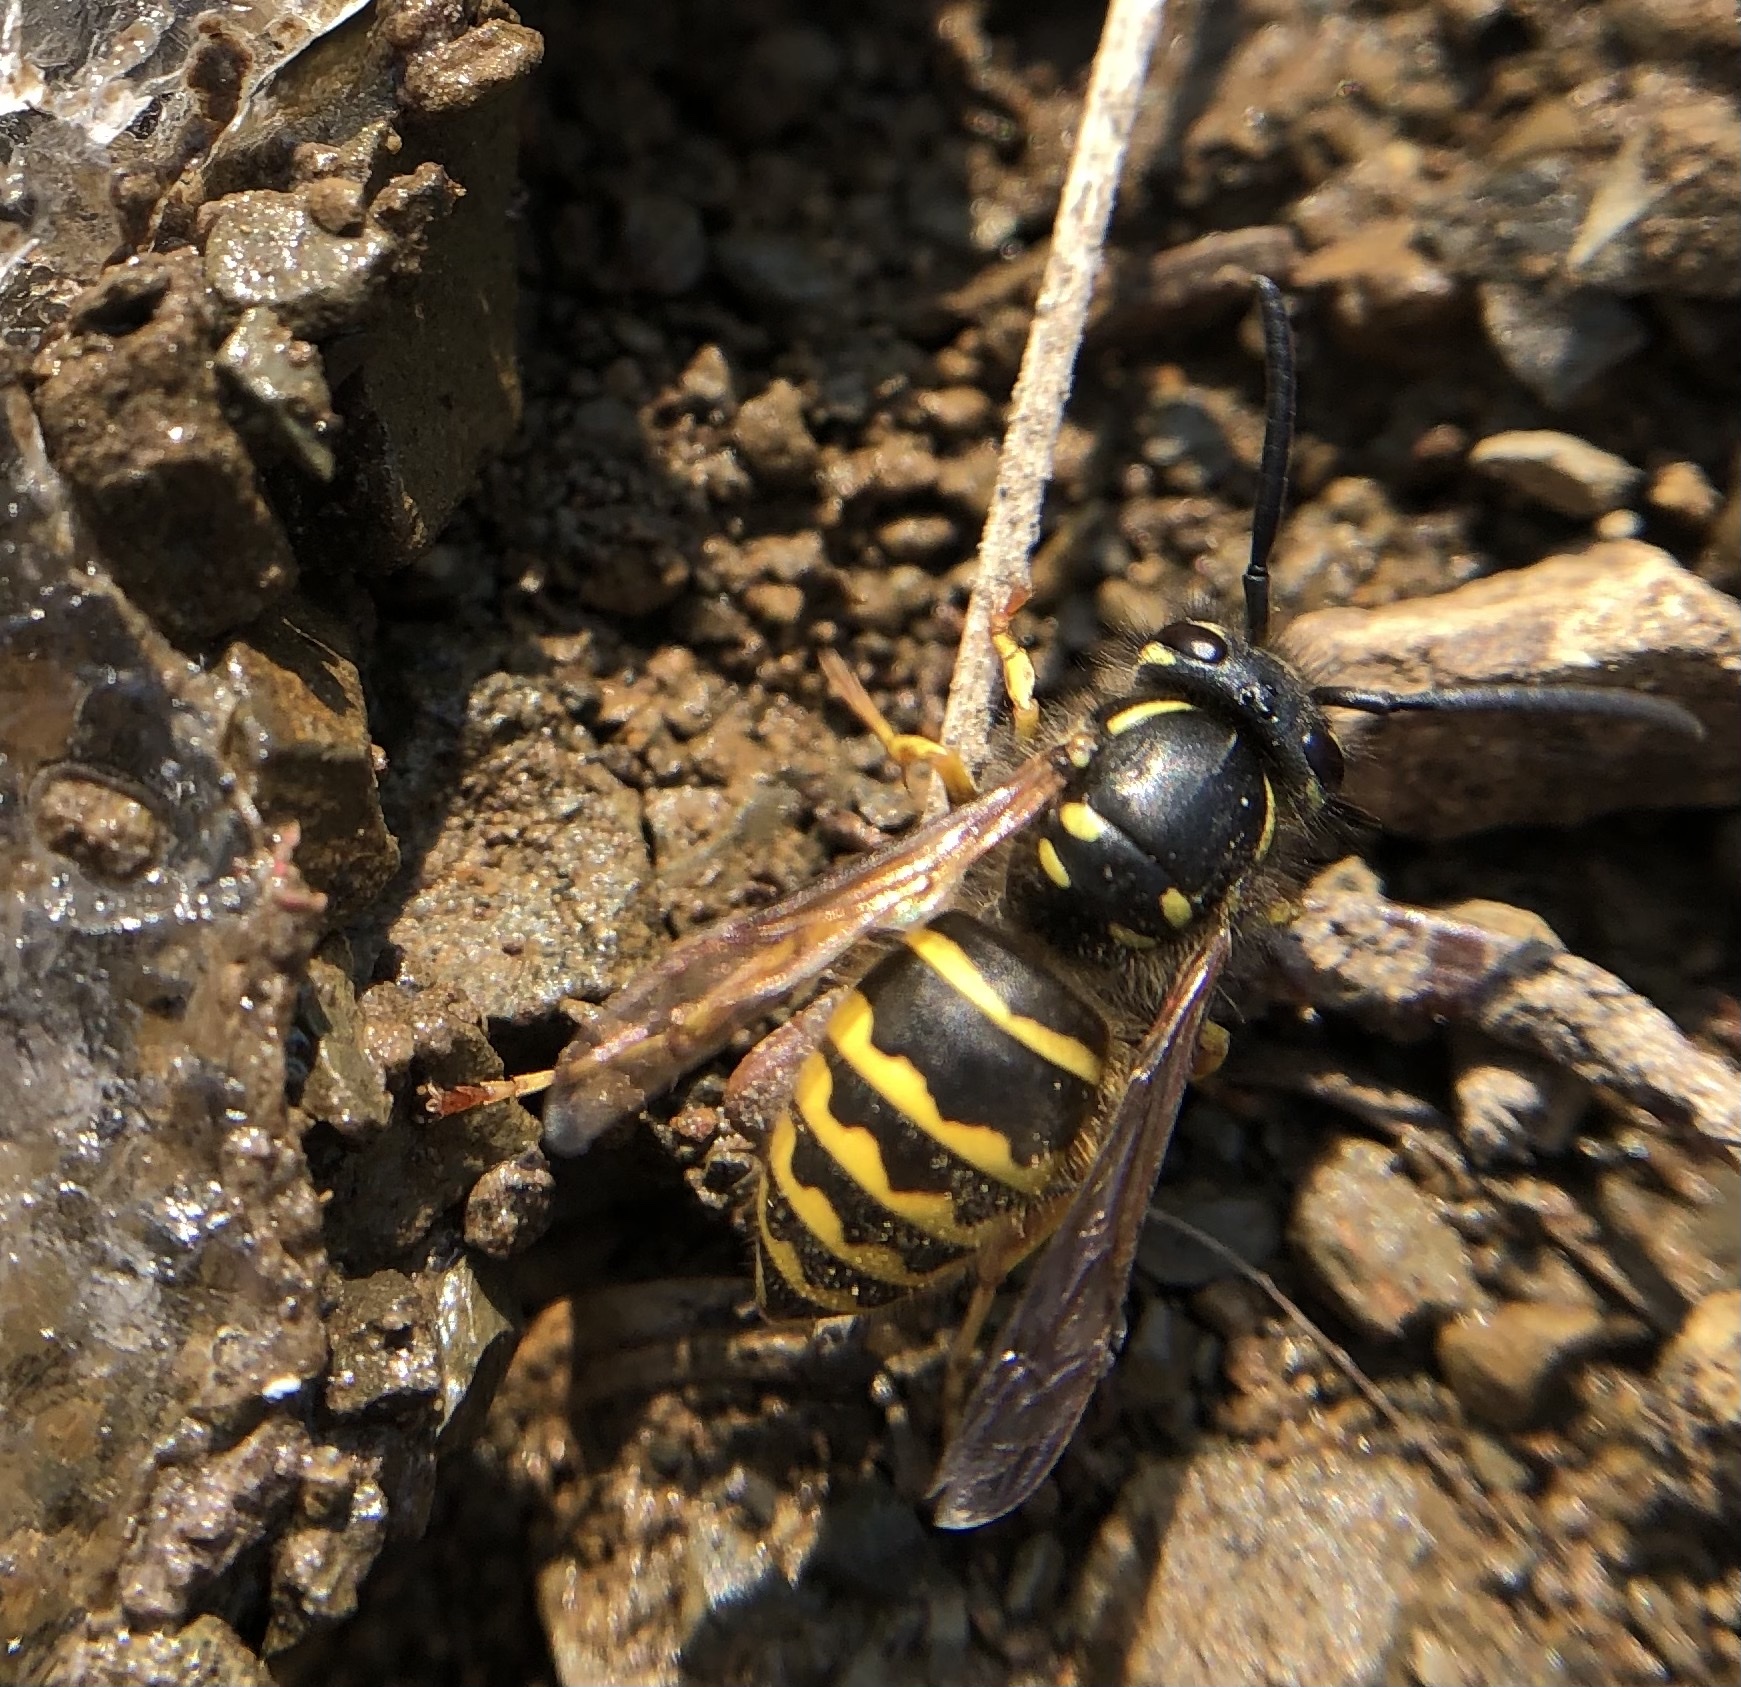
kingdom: Animalia
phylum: Arthropoda
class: Insecta
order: Hymenoptera
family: Vespidae
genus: Vespula
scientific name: Vespula alascensis
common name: Alaska yellowjacket
